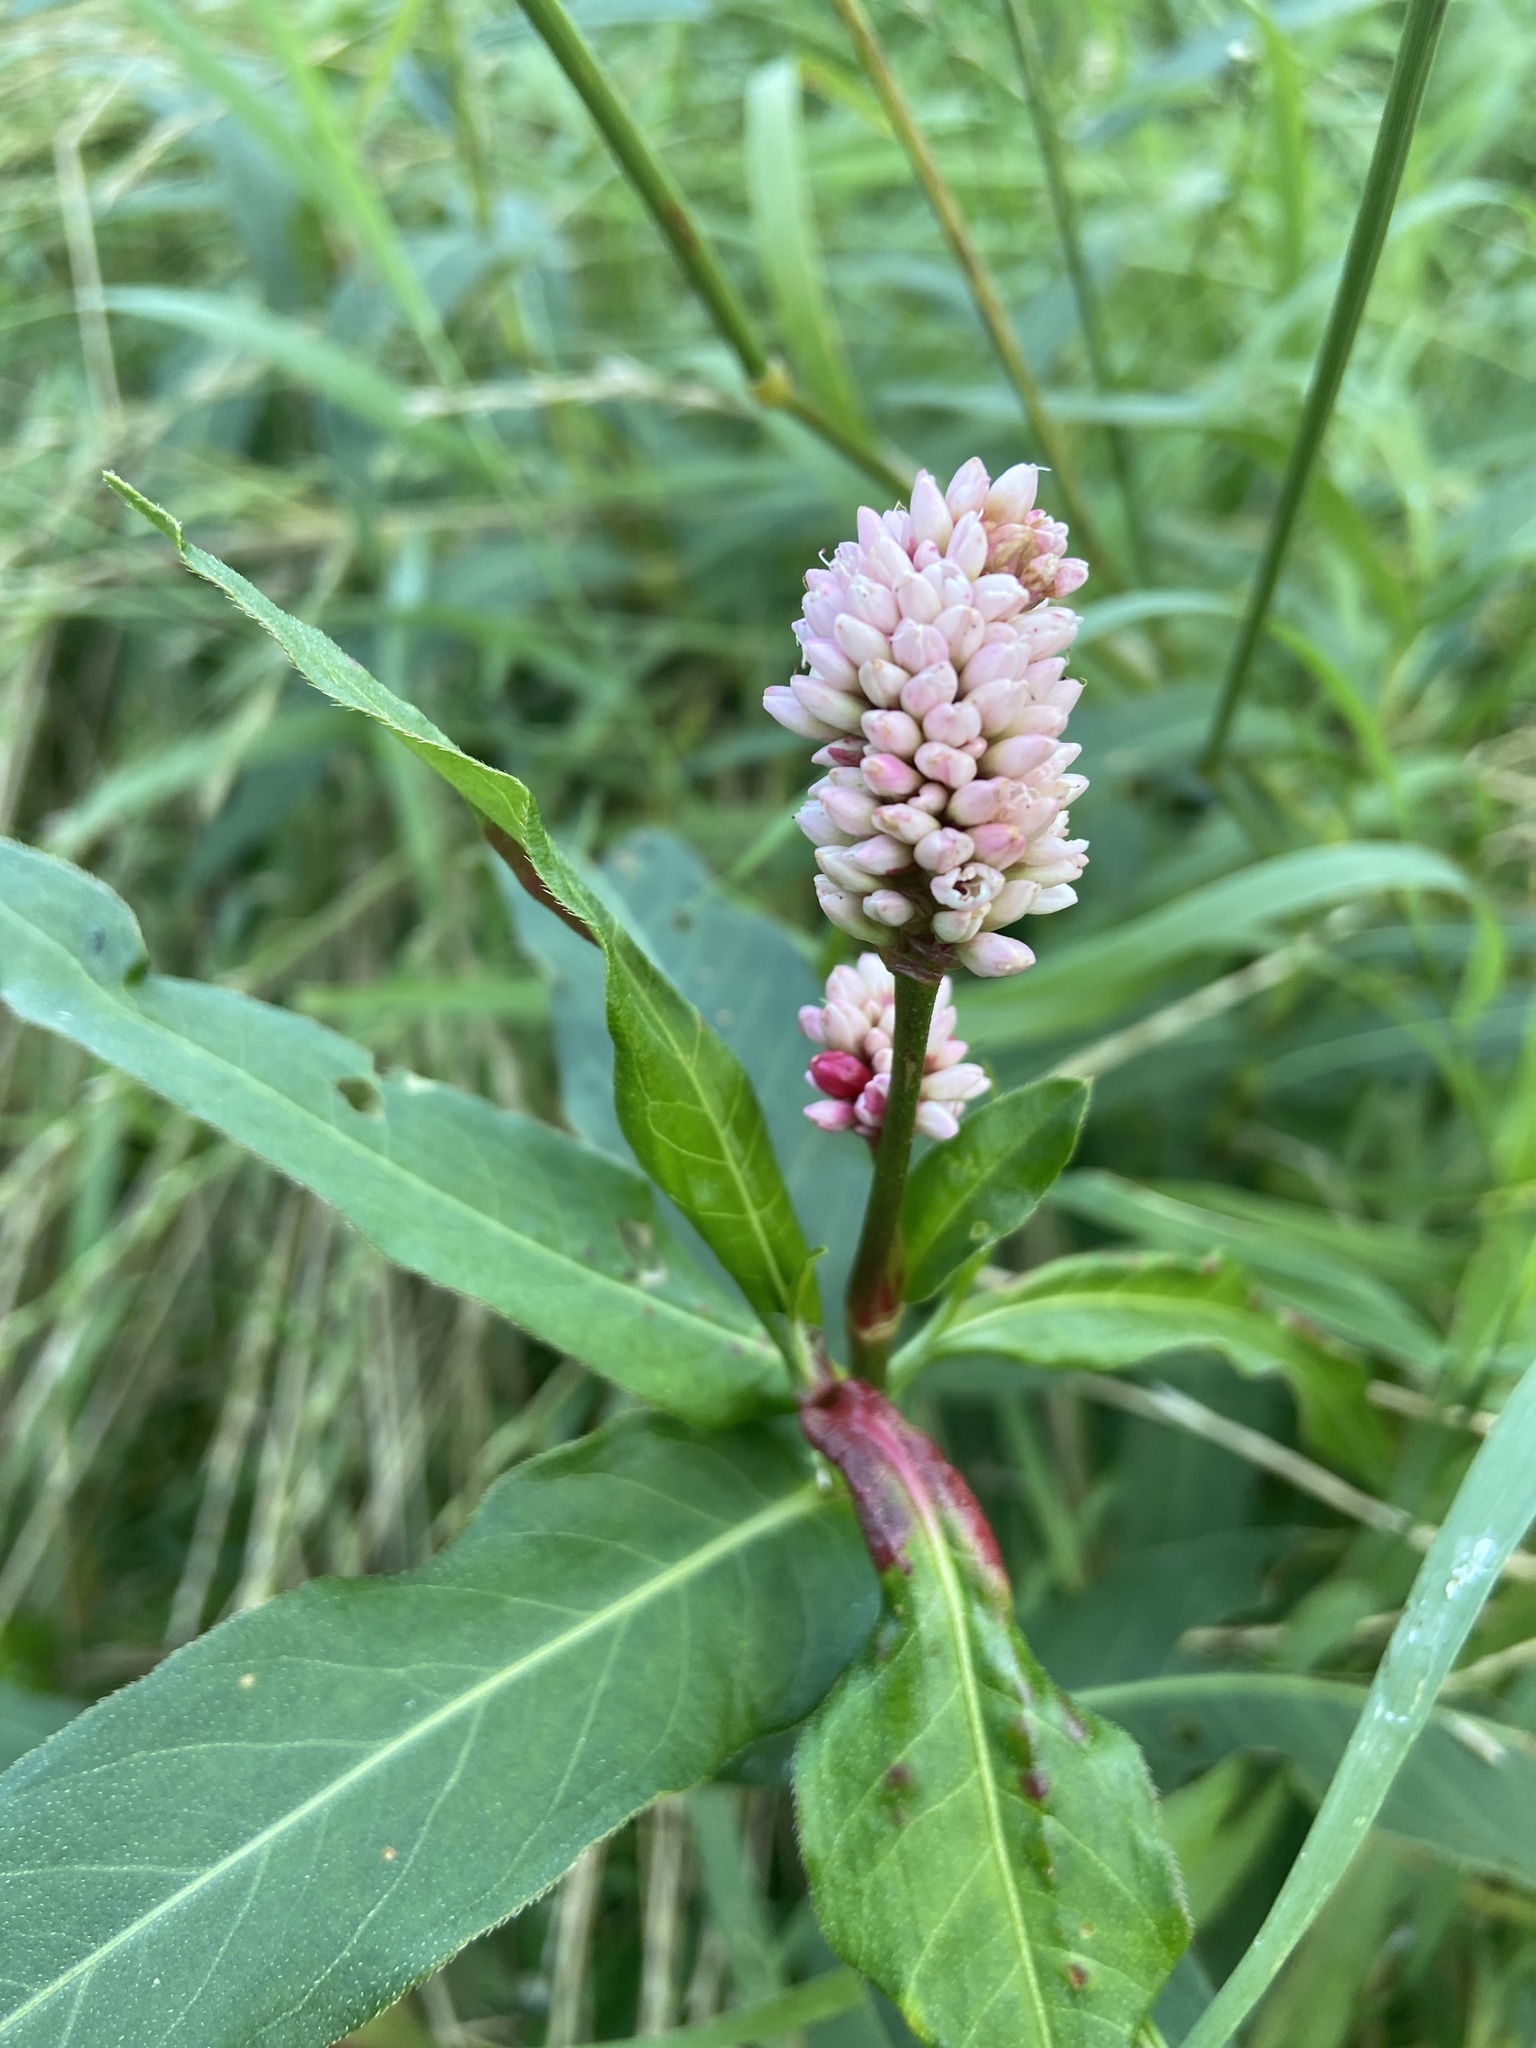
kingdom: Plantae
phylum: Tracheophyta
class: Magnoliopsida
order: Caryophyllales
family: Polygonaceae
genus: Persicaria
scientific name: Persicaria amphibia
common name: Amphibious bistort
